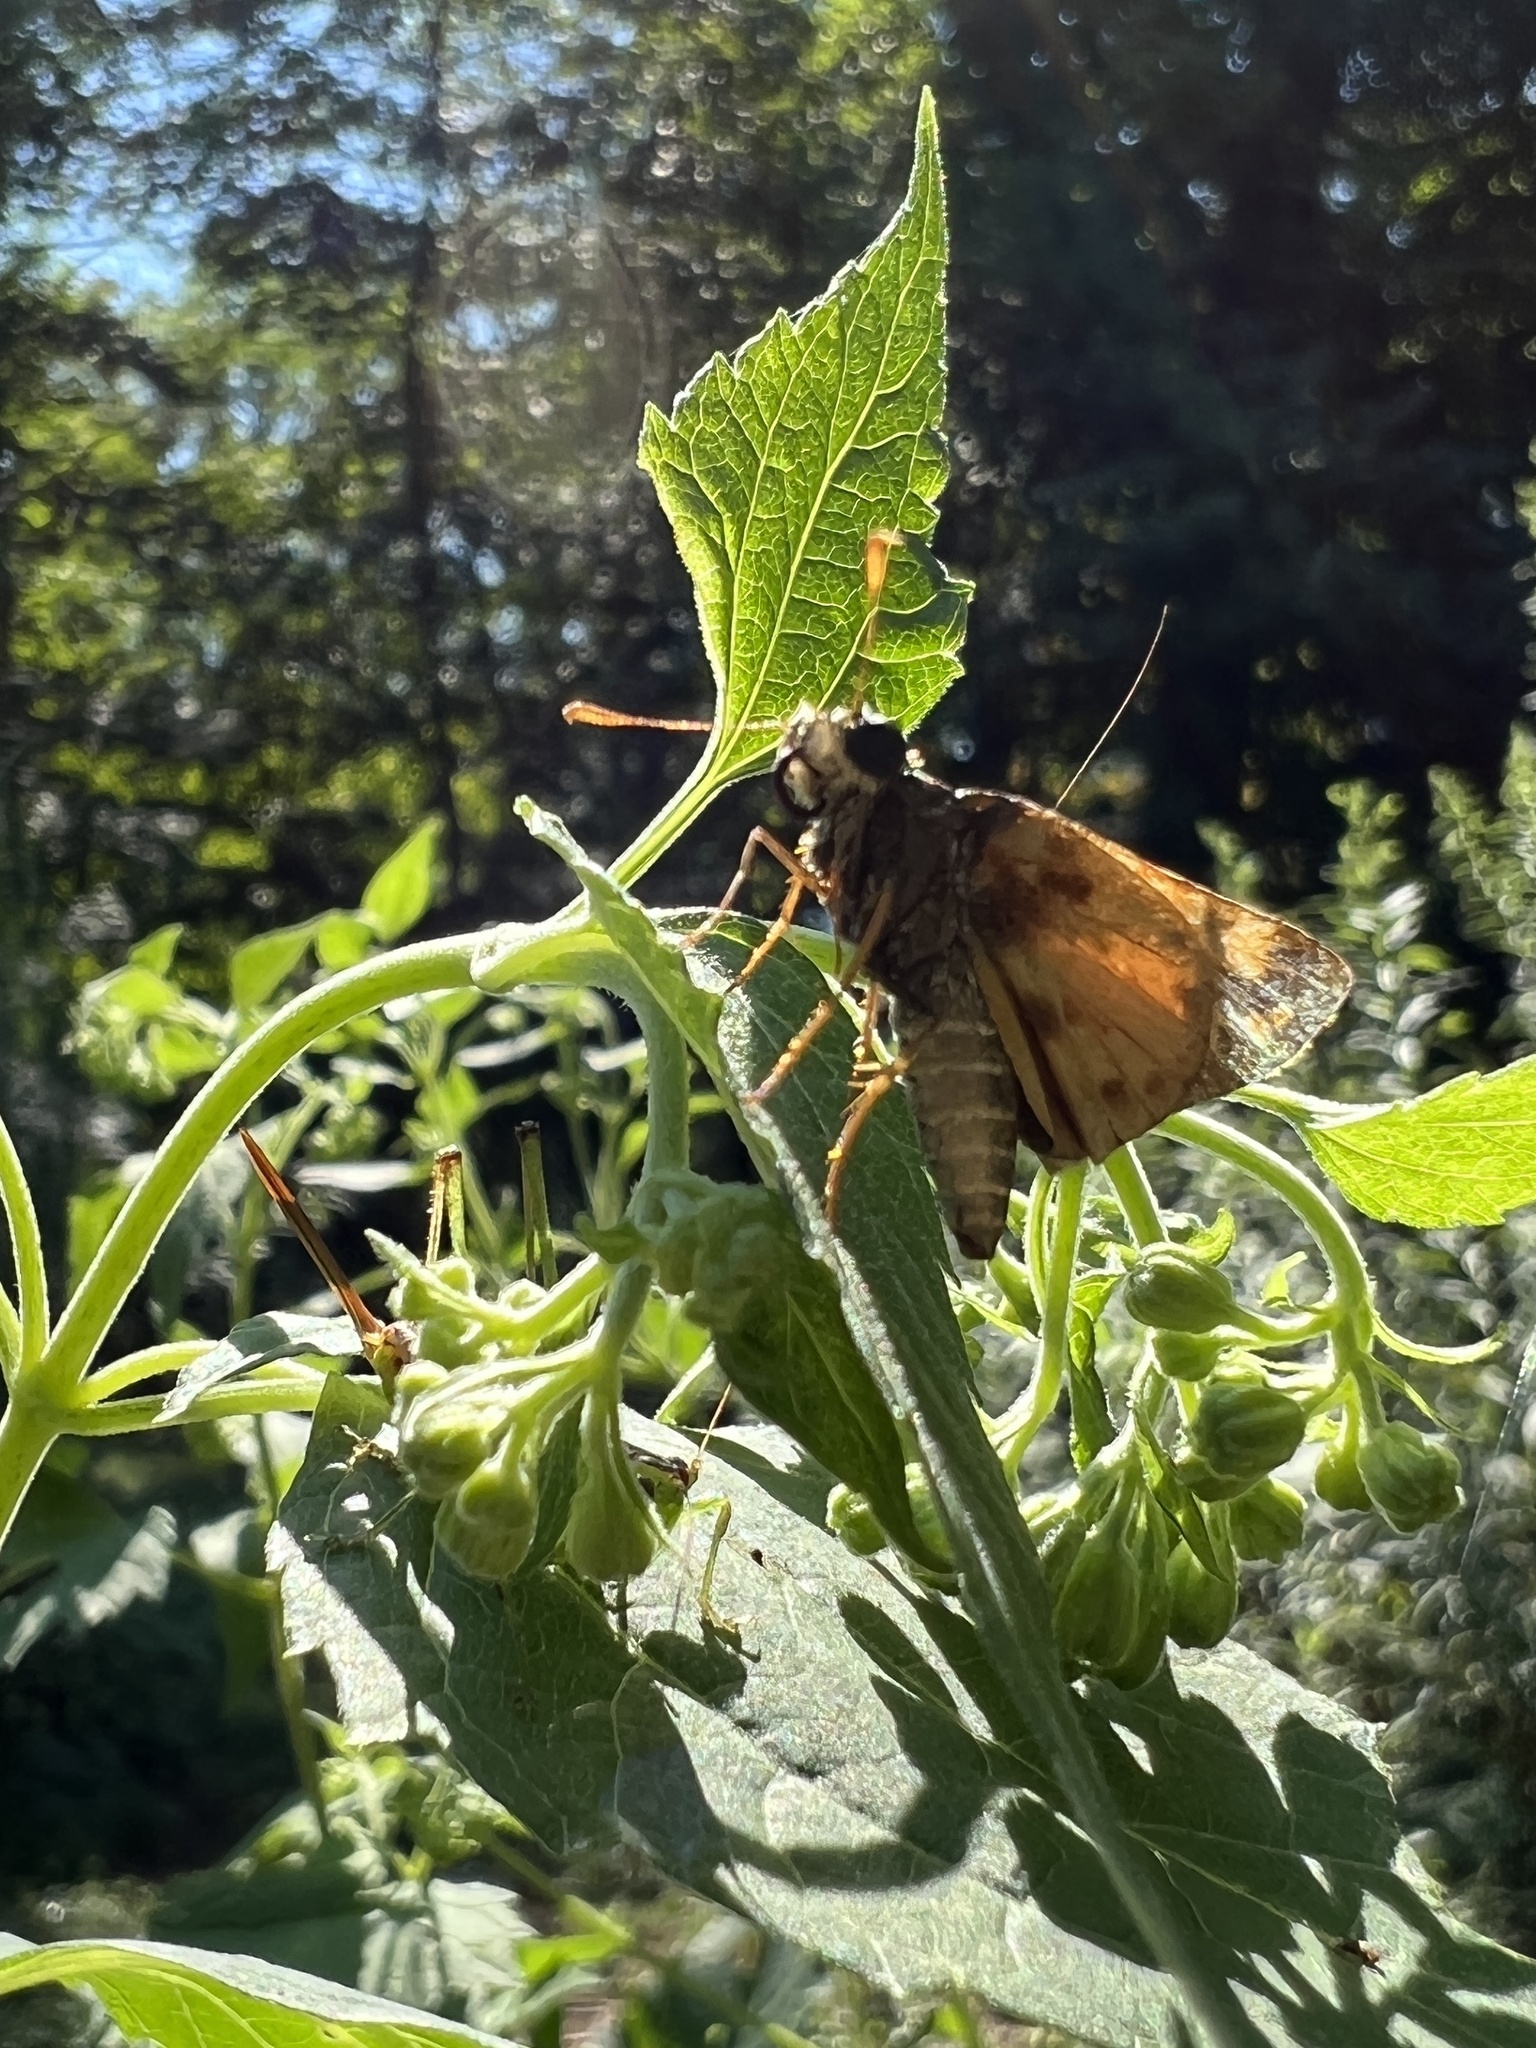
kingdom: Animalia
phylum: Arthropoda
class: Insecta
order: Lepidoptera
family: Hesperiidae
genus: Lon
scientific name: Lon zabulon
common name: Zabulon skipper
